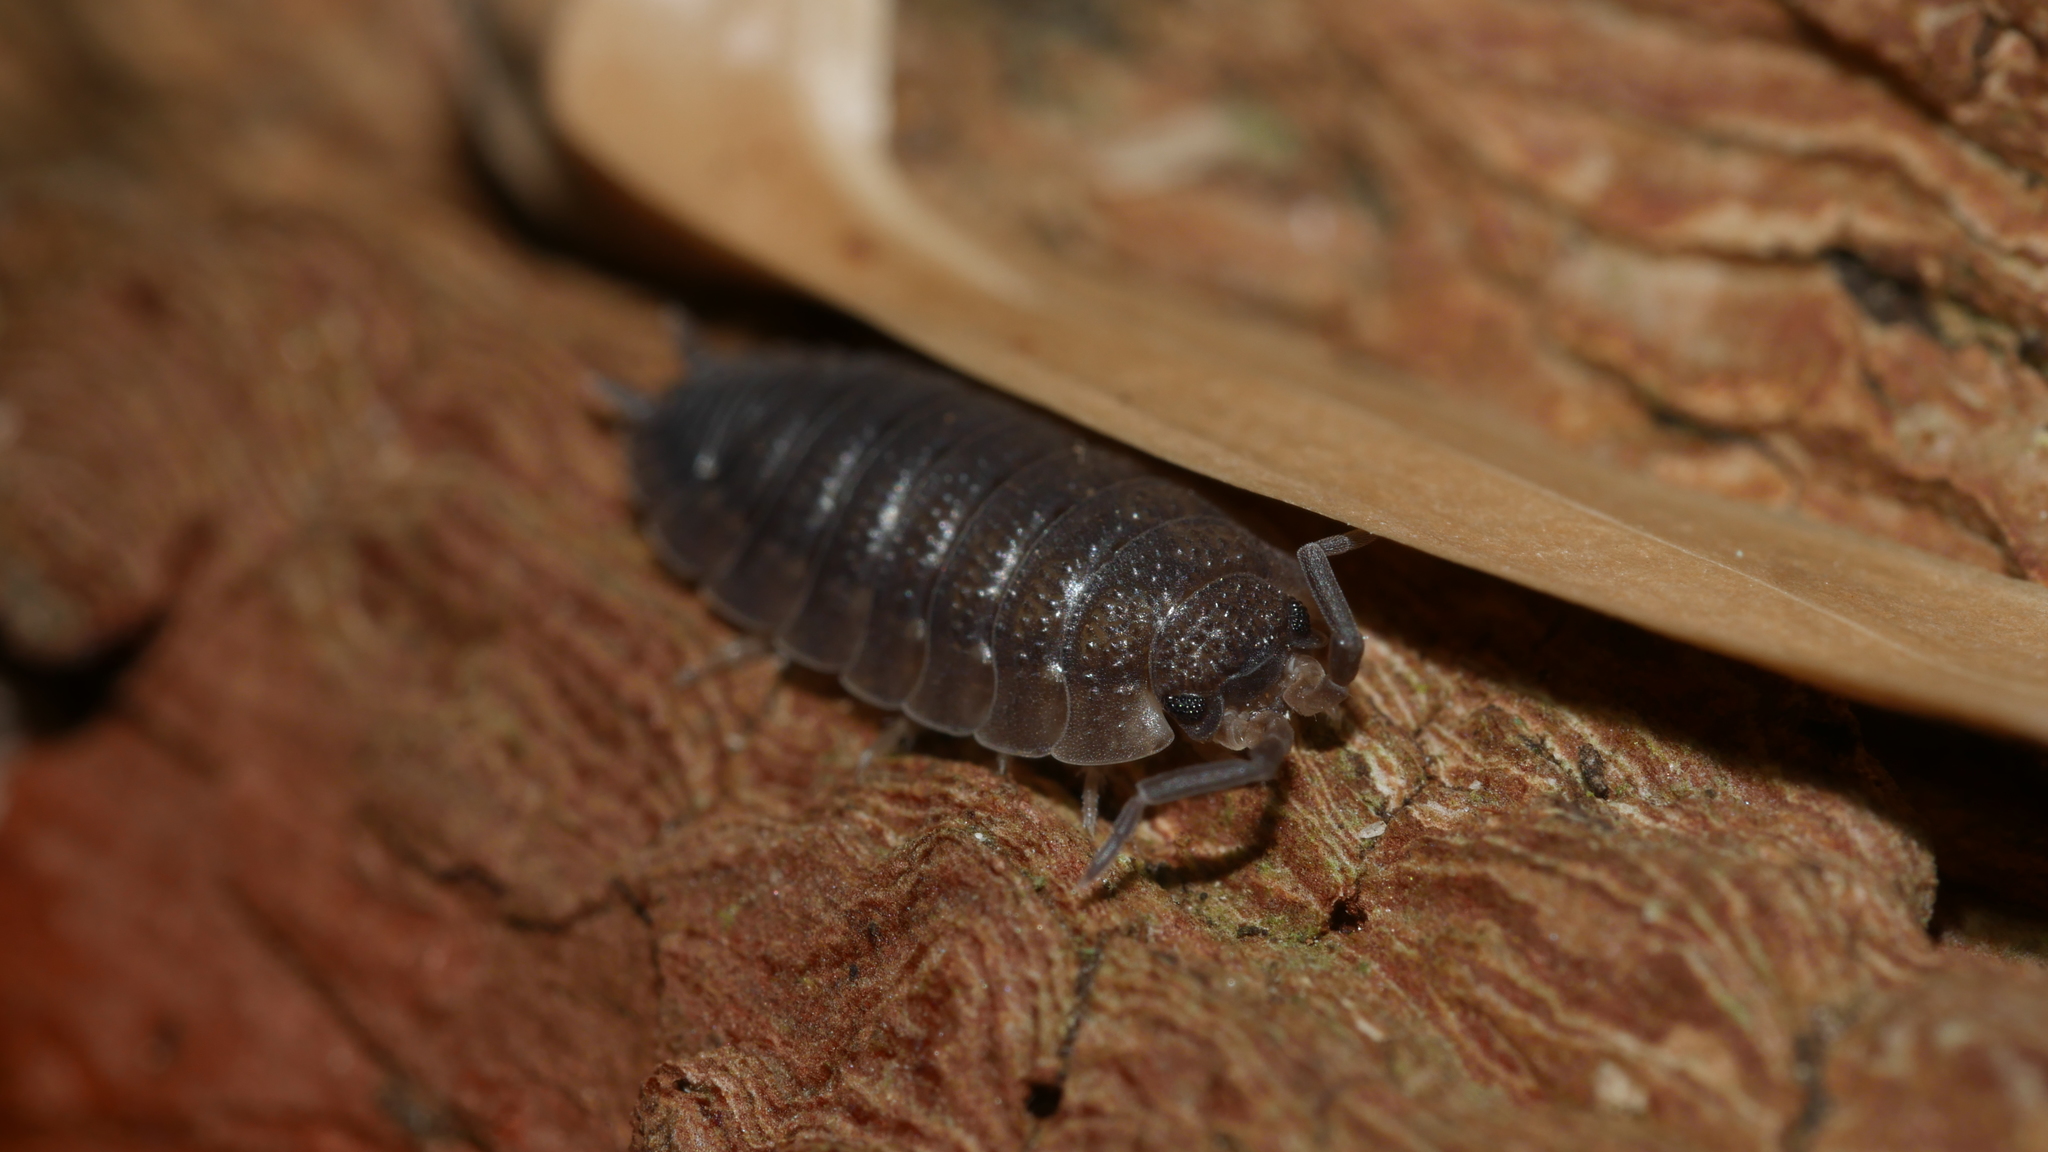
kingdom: Animalia
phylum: Arthropoda
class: Malacostraca
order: Isopoda
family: Porcellionidae
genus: Porcellio
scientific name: Porcellio scaber
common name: Common rough woodlouse
